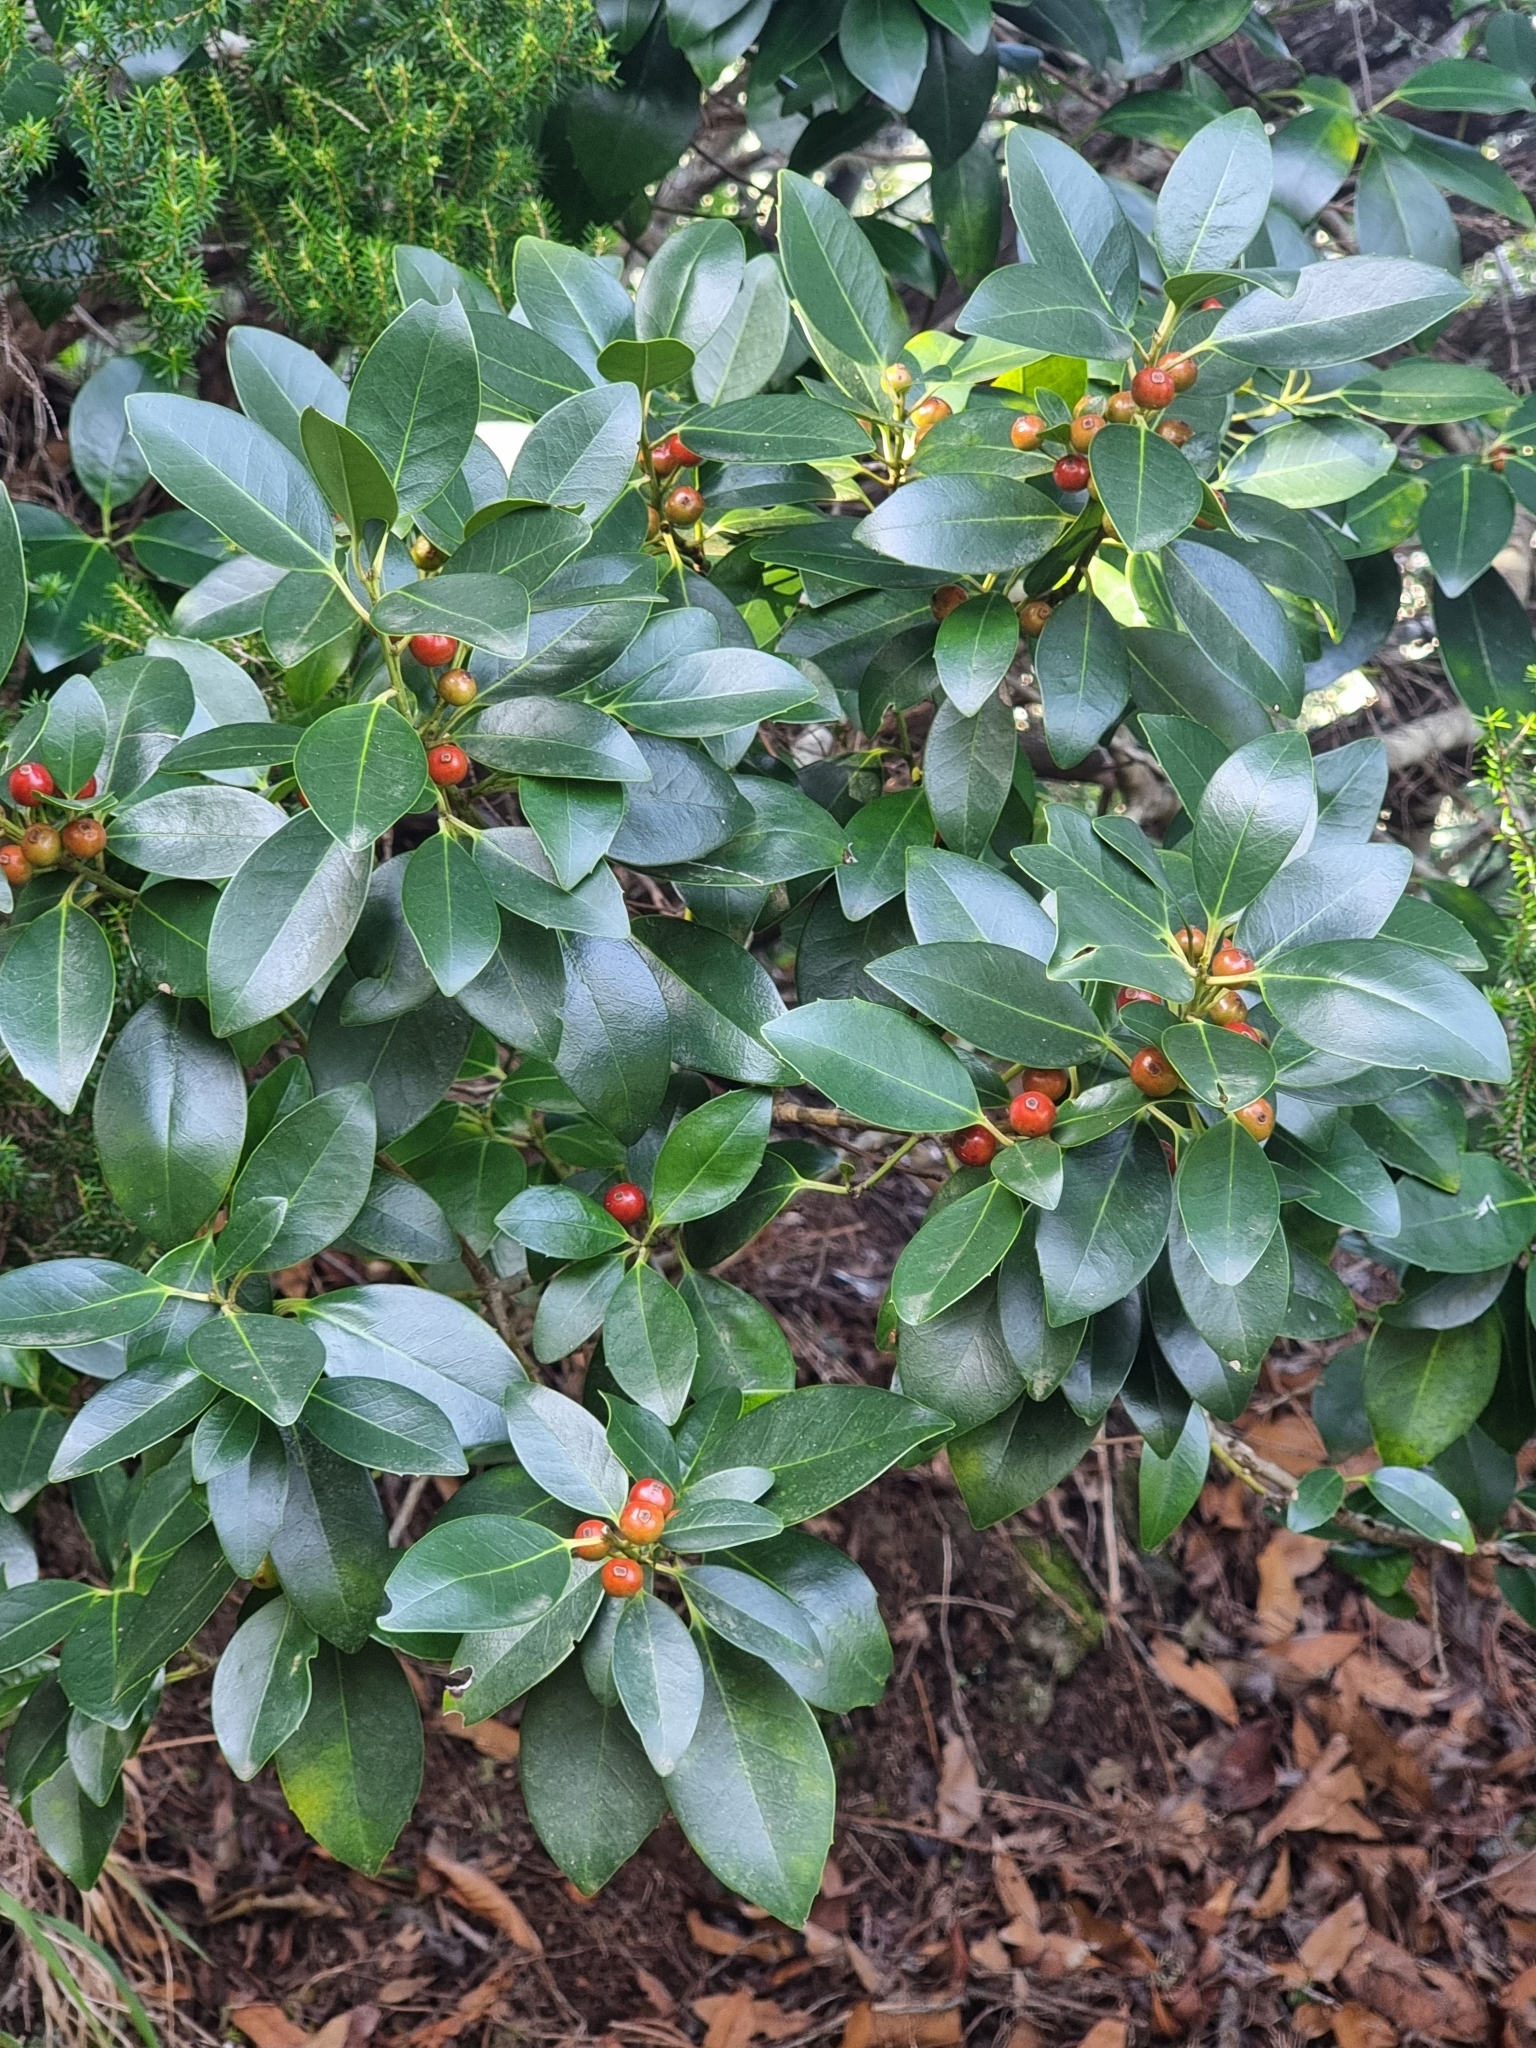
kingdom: Plantae
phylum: Tracheophyta
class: Magnoliopsida
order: Aquifoliales
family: Aquifoliaceae
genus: Ilex
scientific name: Ilex canariensis
